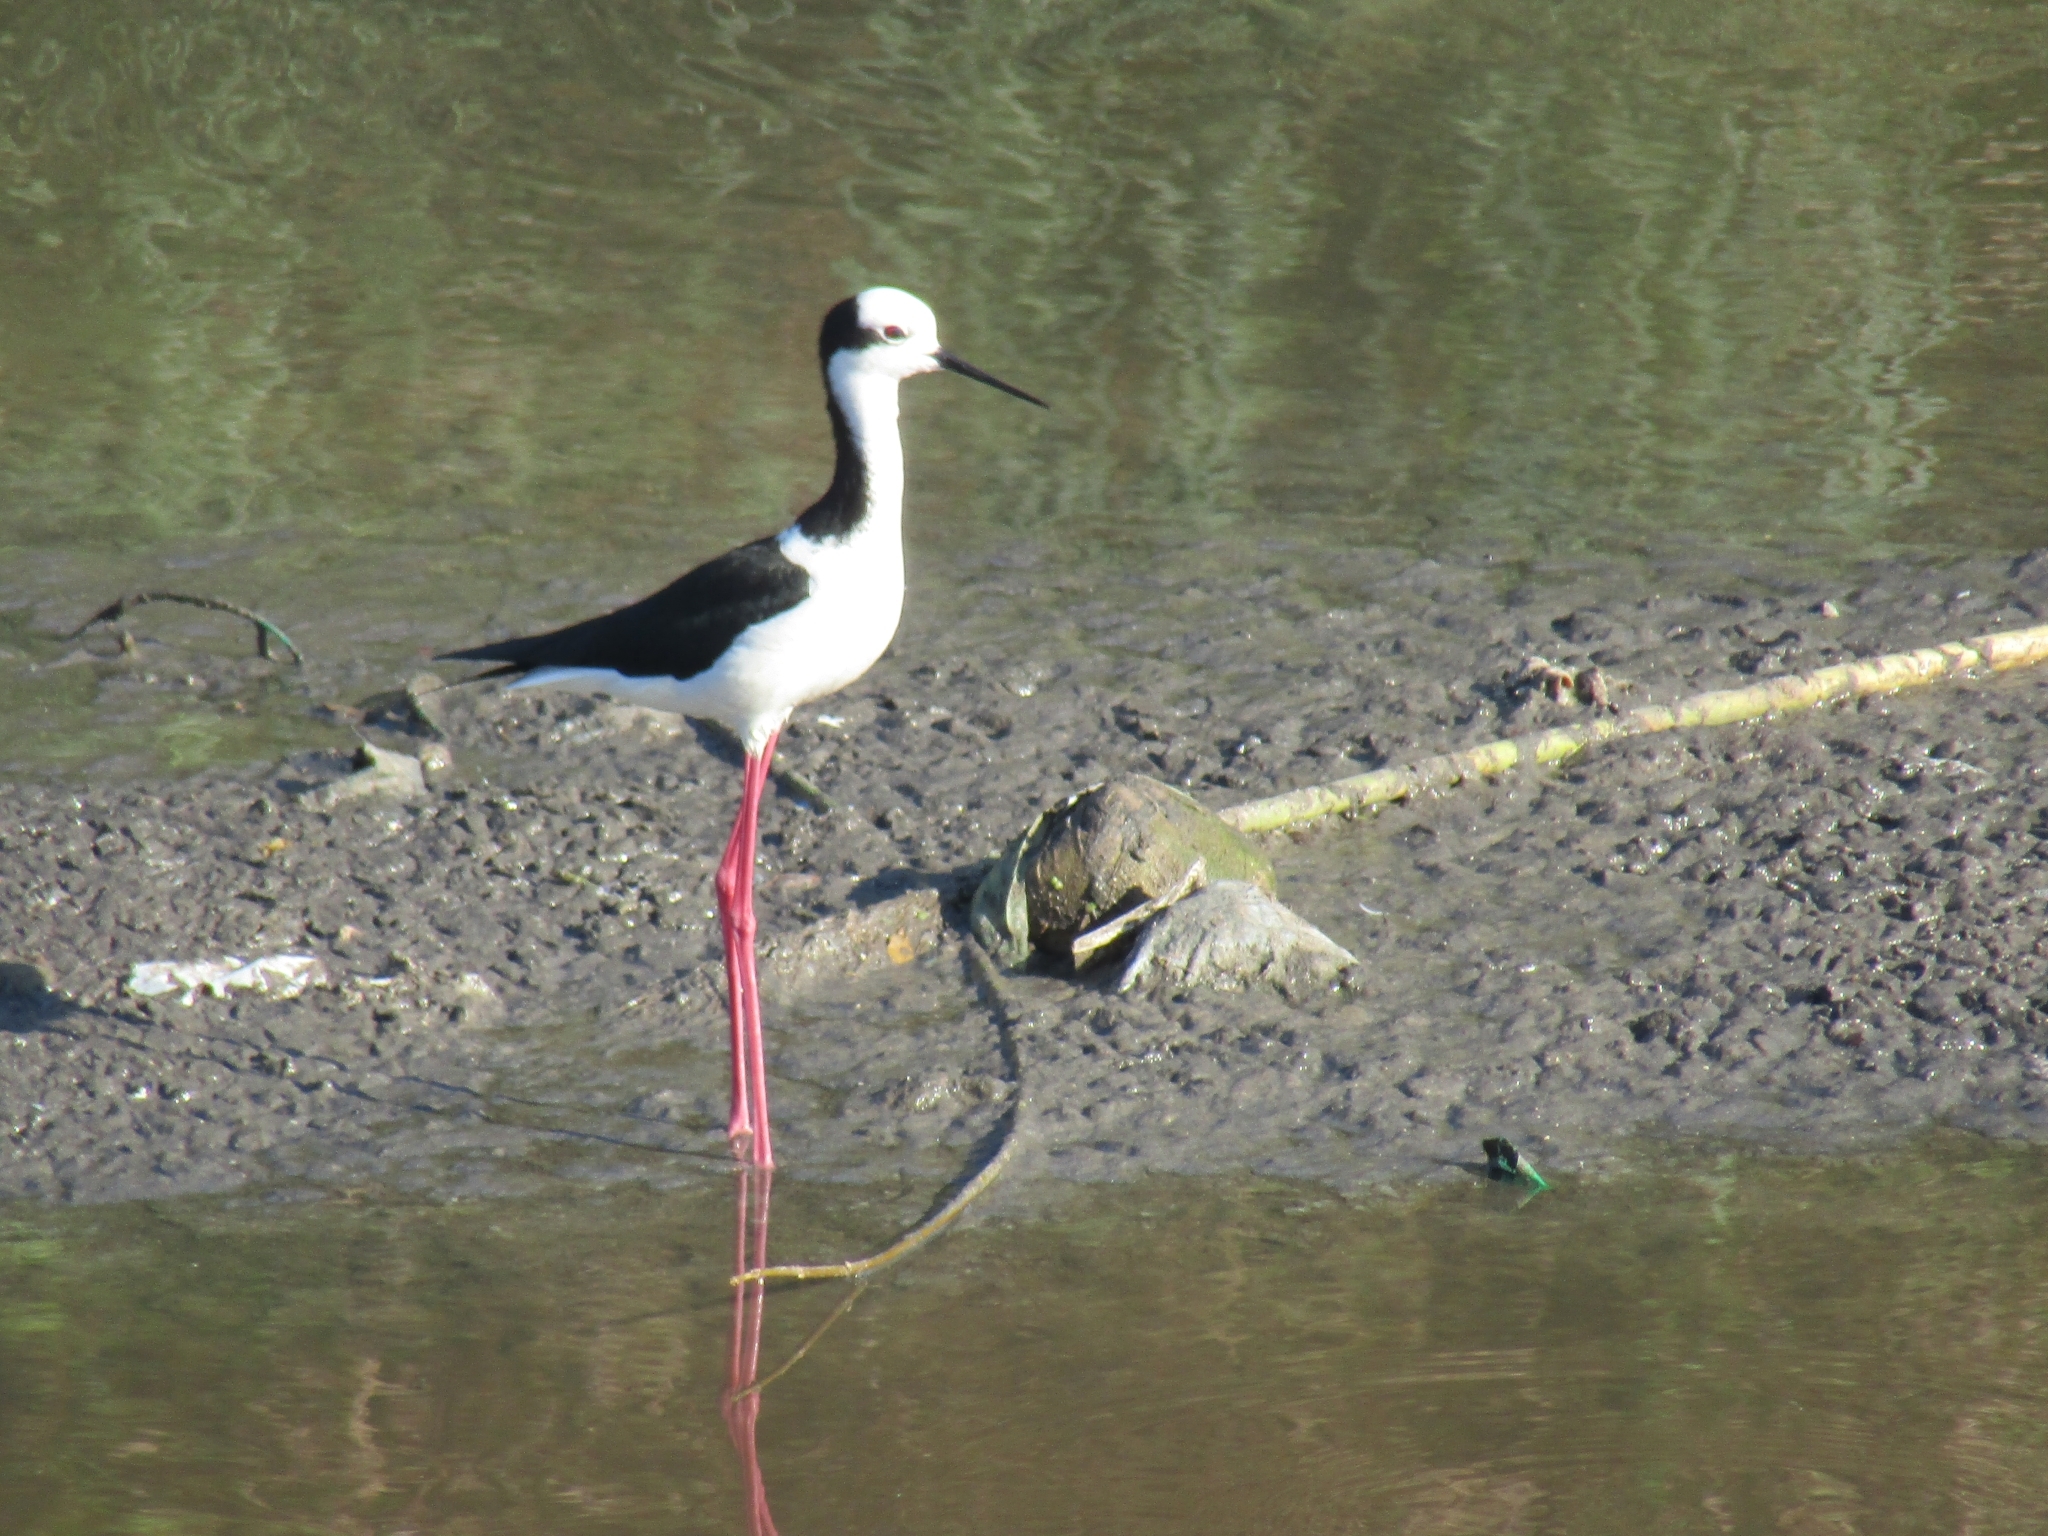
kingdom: Animalia
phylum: Chordata
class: Aves
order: Charadriiformes
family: Recurvirostridae
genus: Himantopus
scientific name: Himantopus mexicanus
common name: Black-necked stilt
